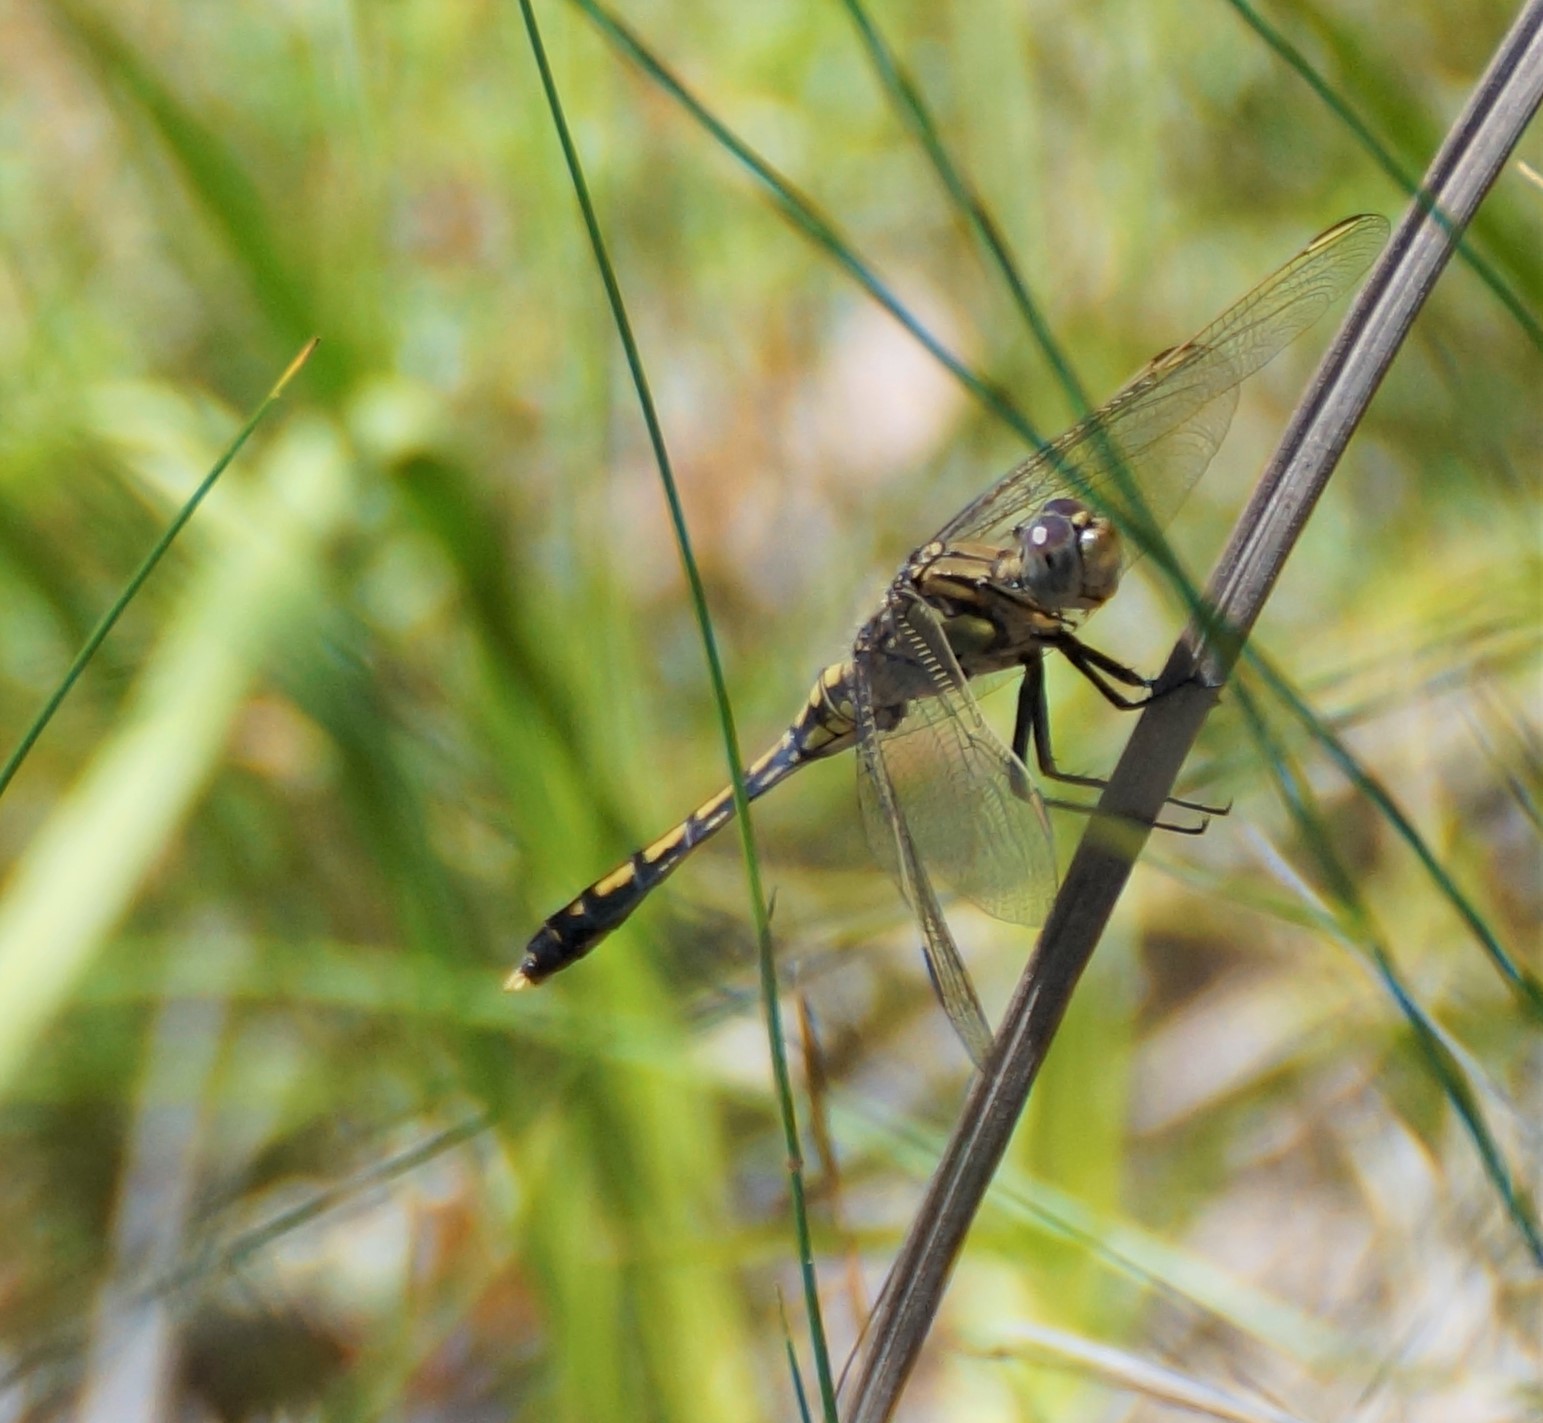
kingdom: Animalia
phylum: Arthropoda
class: Insecta
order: Odonata
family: Libellulidae
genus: Orthetrum
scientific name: Orthetrum caledonicum
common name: Blue skimmer
